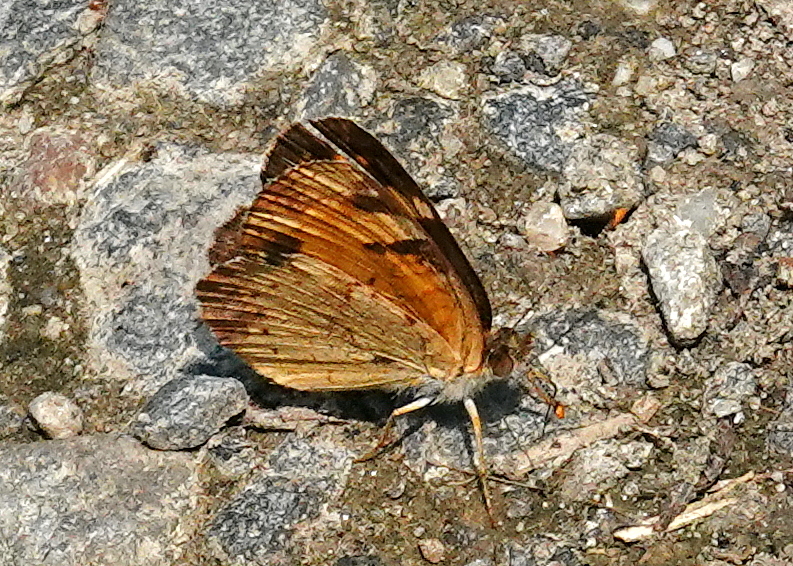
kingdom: Animalia
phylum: Arthropoda
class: Insecta
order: Lepidoptera
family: Nymphalidae
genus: Phyciodes
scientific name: Phyciodes tharos
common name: Pearl crescent
